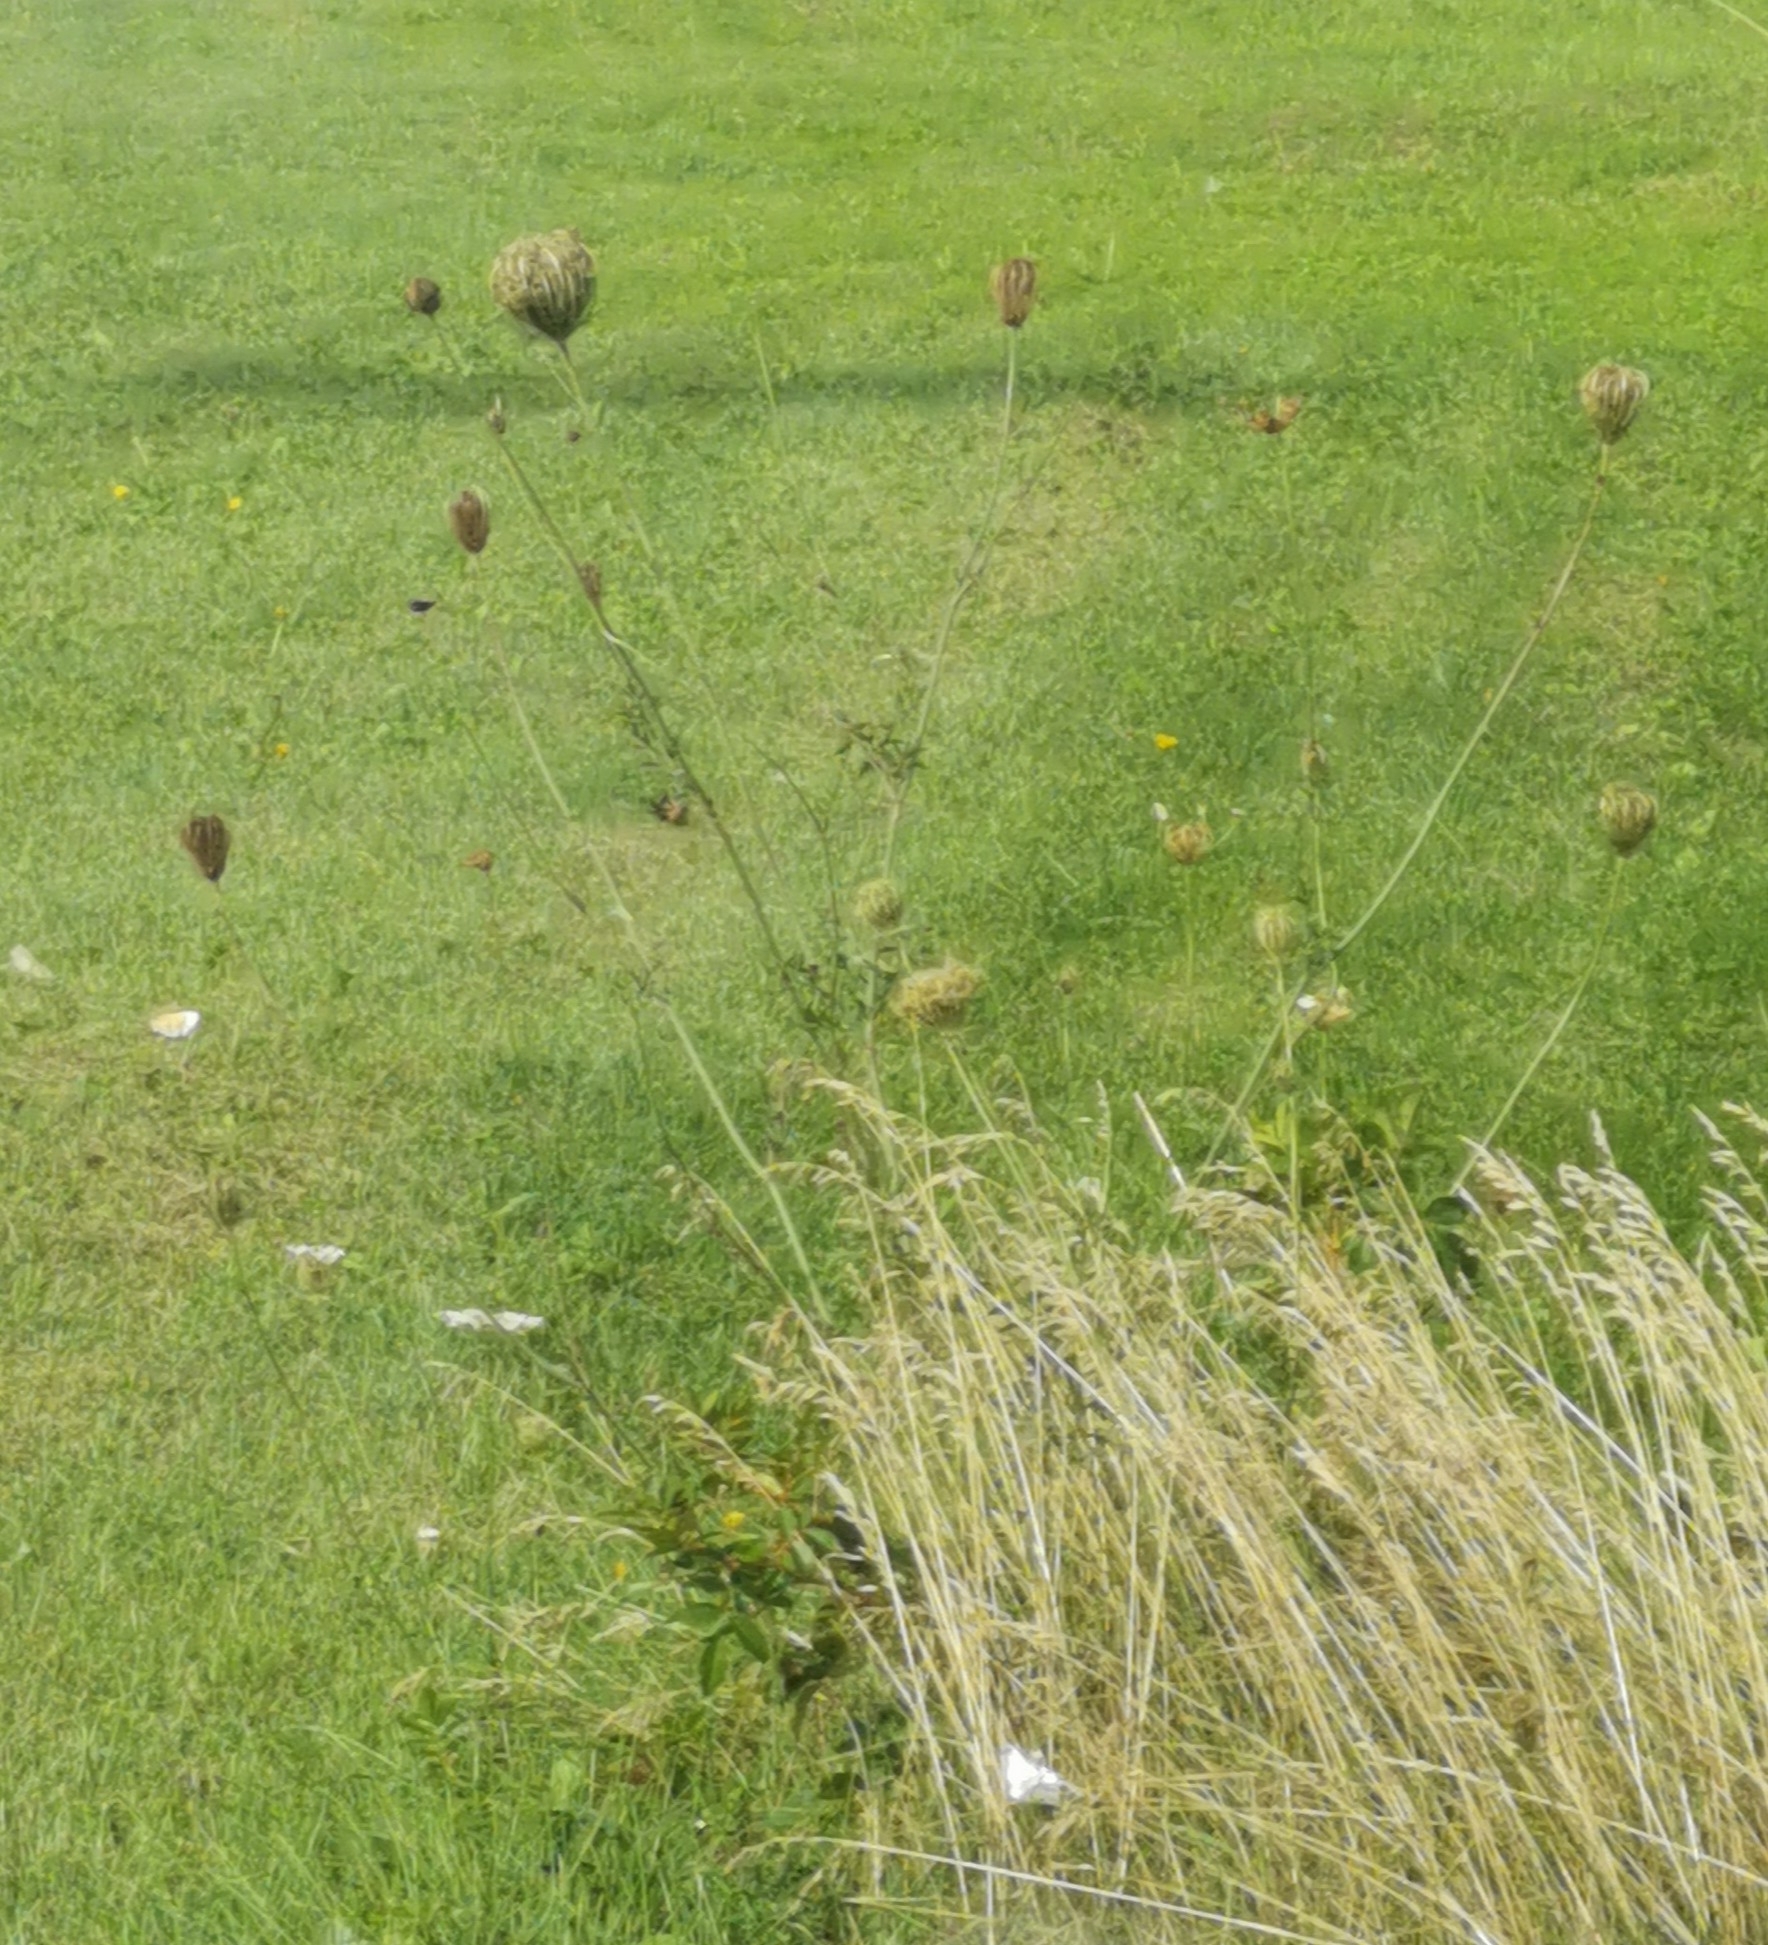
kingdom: Plantae
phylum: Tracheophyta
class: Magnoliopsida
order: Apiales
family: Apiaceae
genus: Daucus
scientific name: Daucus carota
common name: Wild carrot
